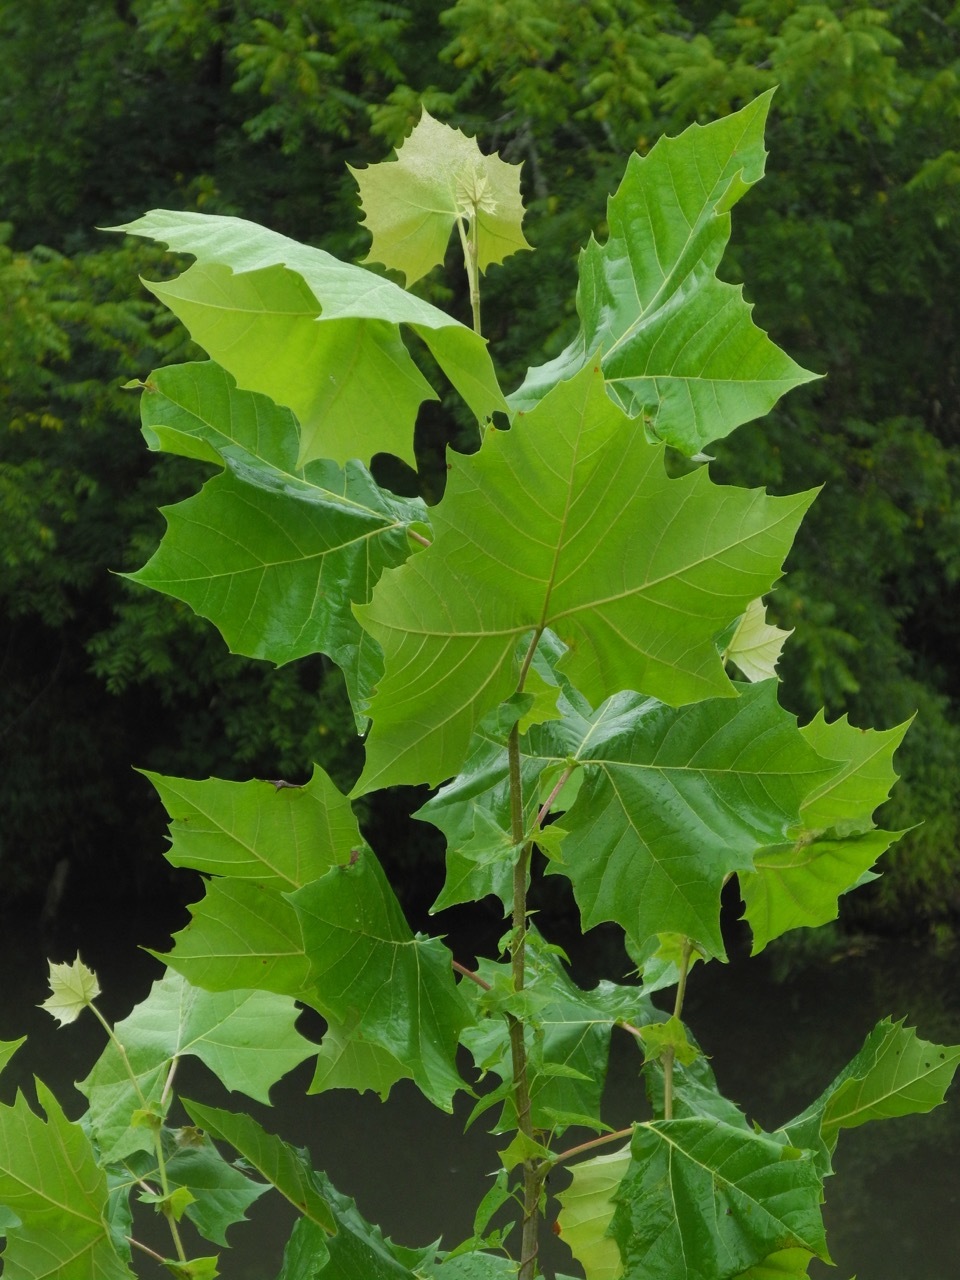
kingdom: Plantae
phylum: Tracheophyta
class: Magnoliopsida
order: Proteales
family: Platanaceae
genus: Platanus
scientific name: Platanus occidentalis
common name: American sycamore
